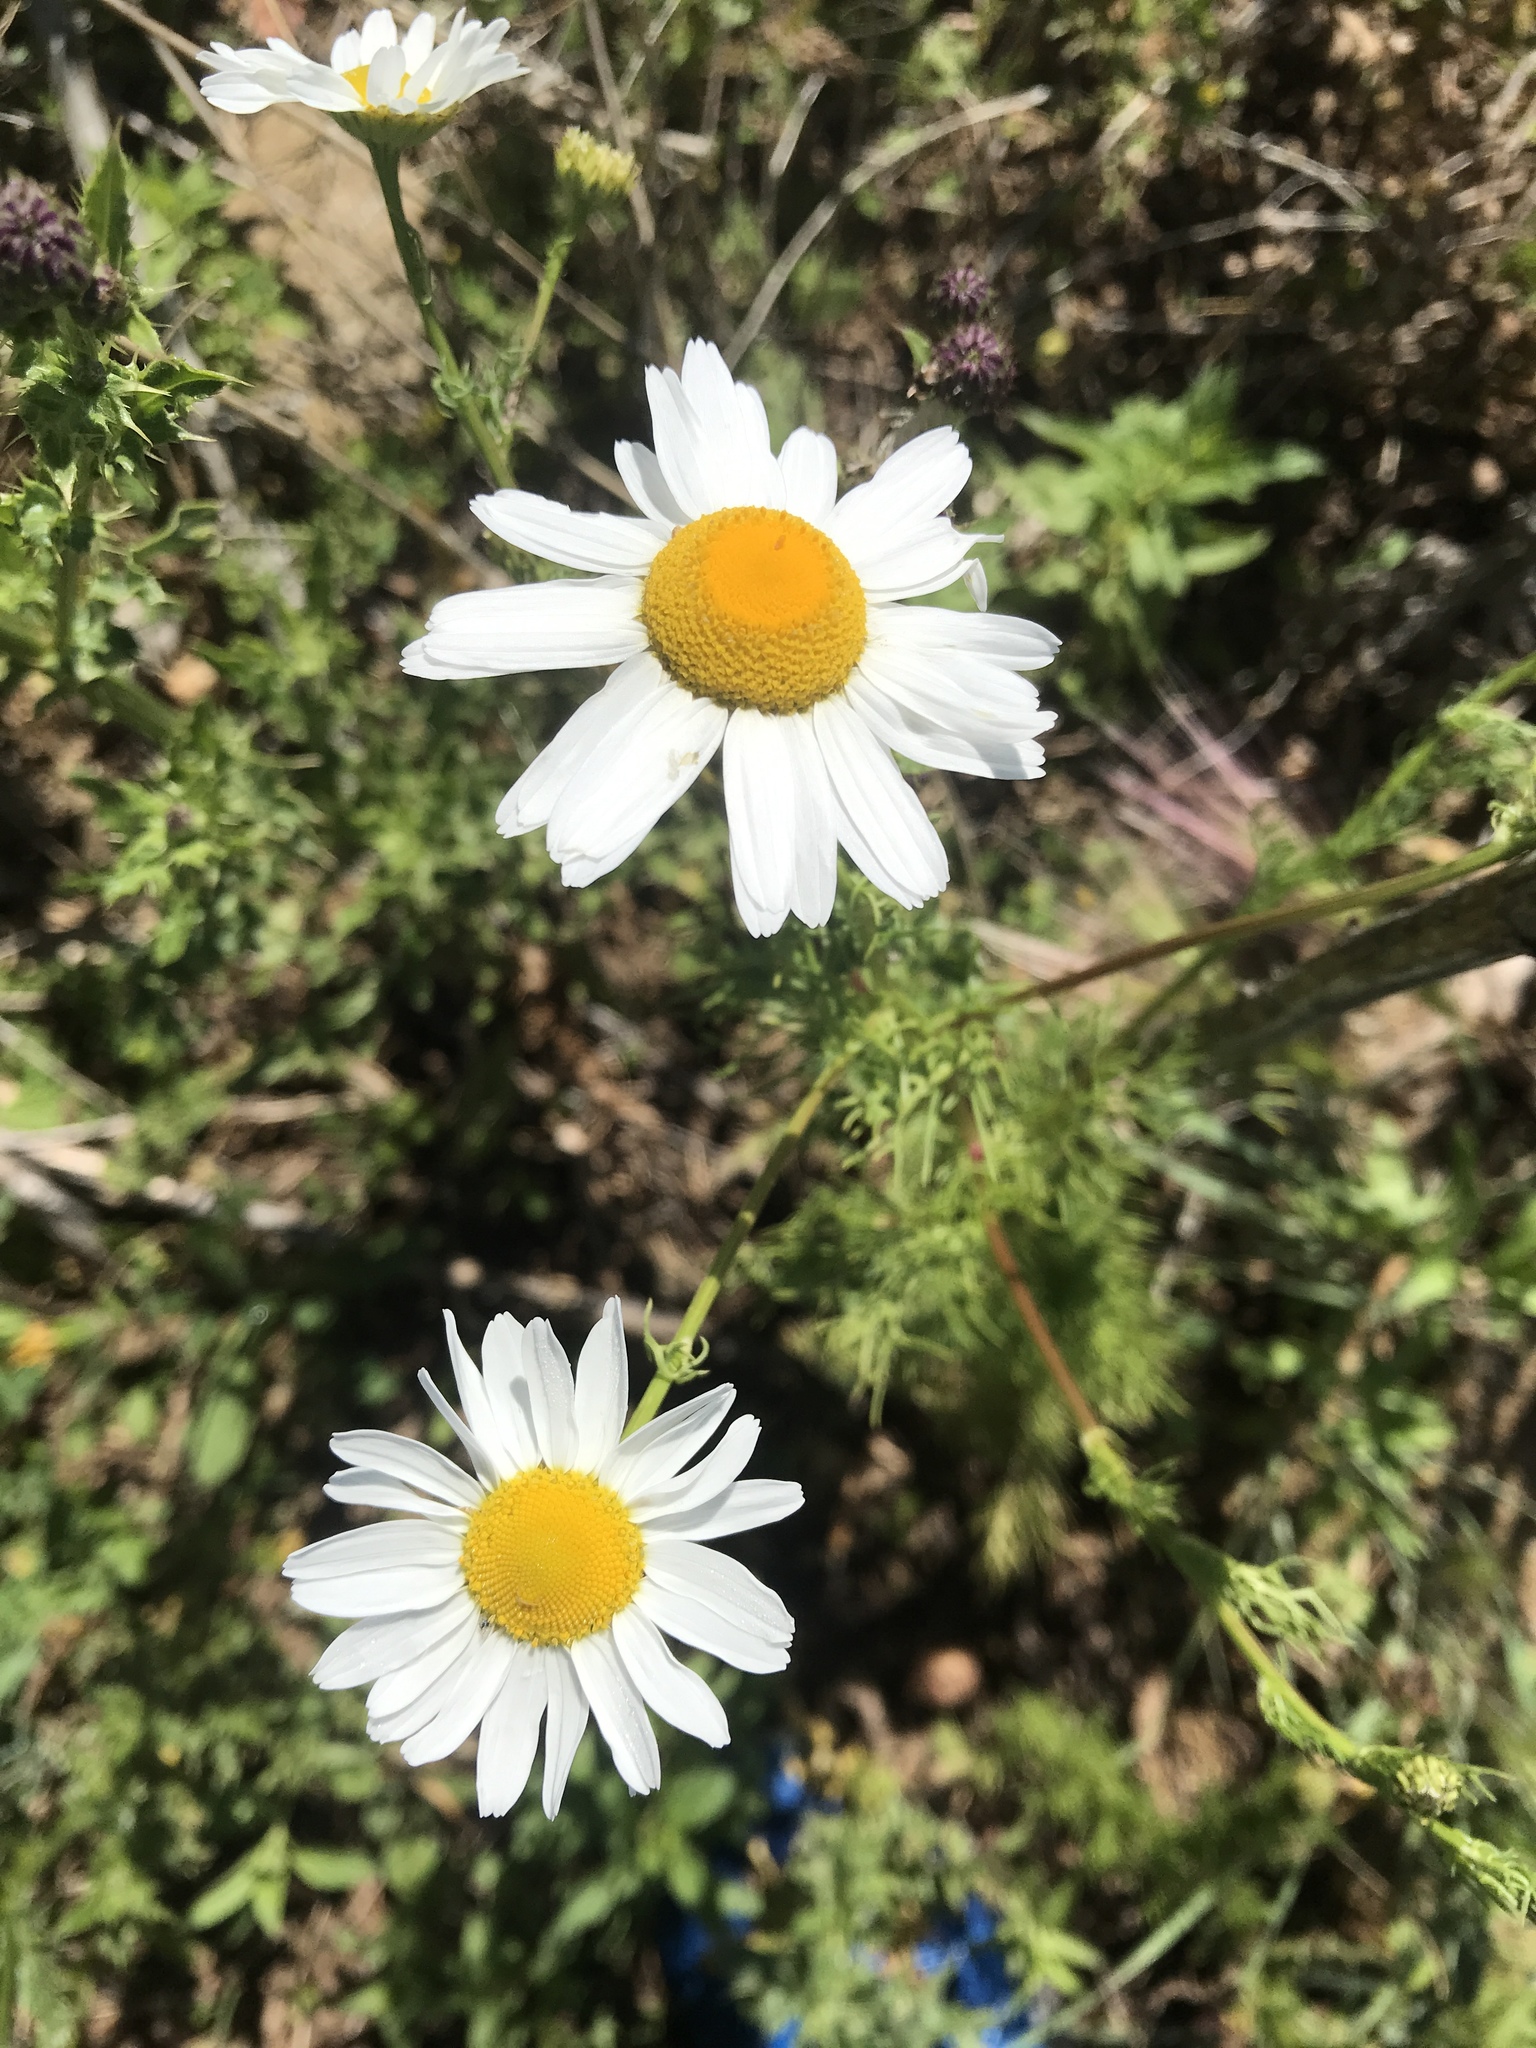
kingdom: Plantae
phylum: Tracheophyta
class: Magnoliopsida
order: Asterales
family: Asteraceae
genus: Tripleurospermum
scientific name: Tripleurospermum inodorum
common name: Scentless mayweed
